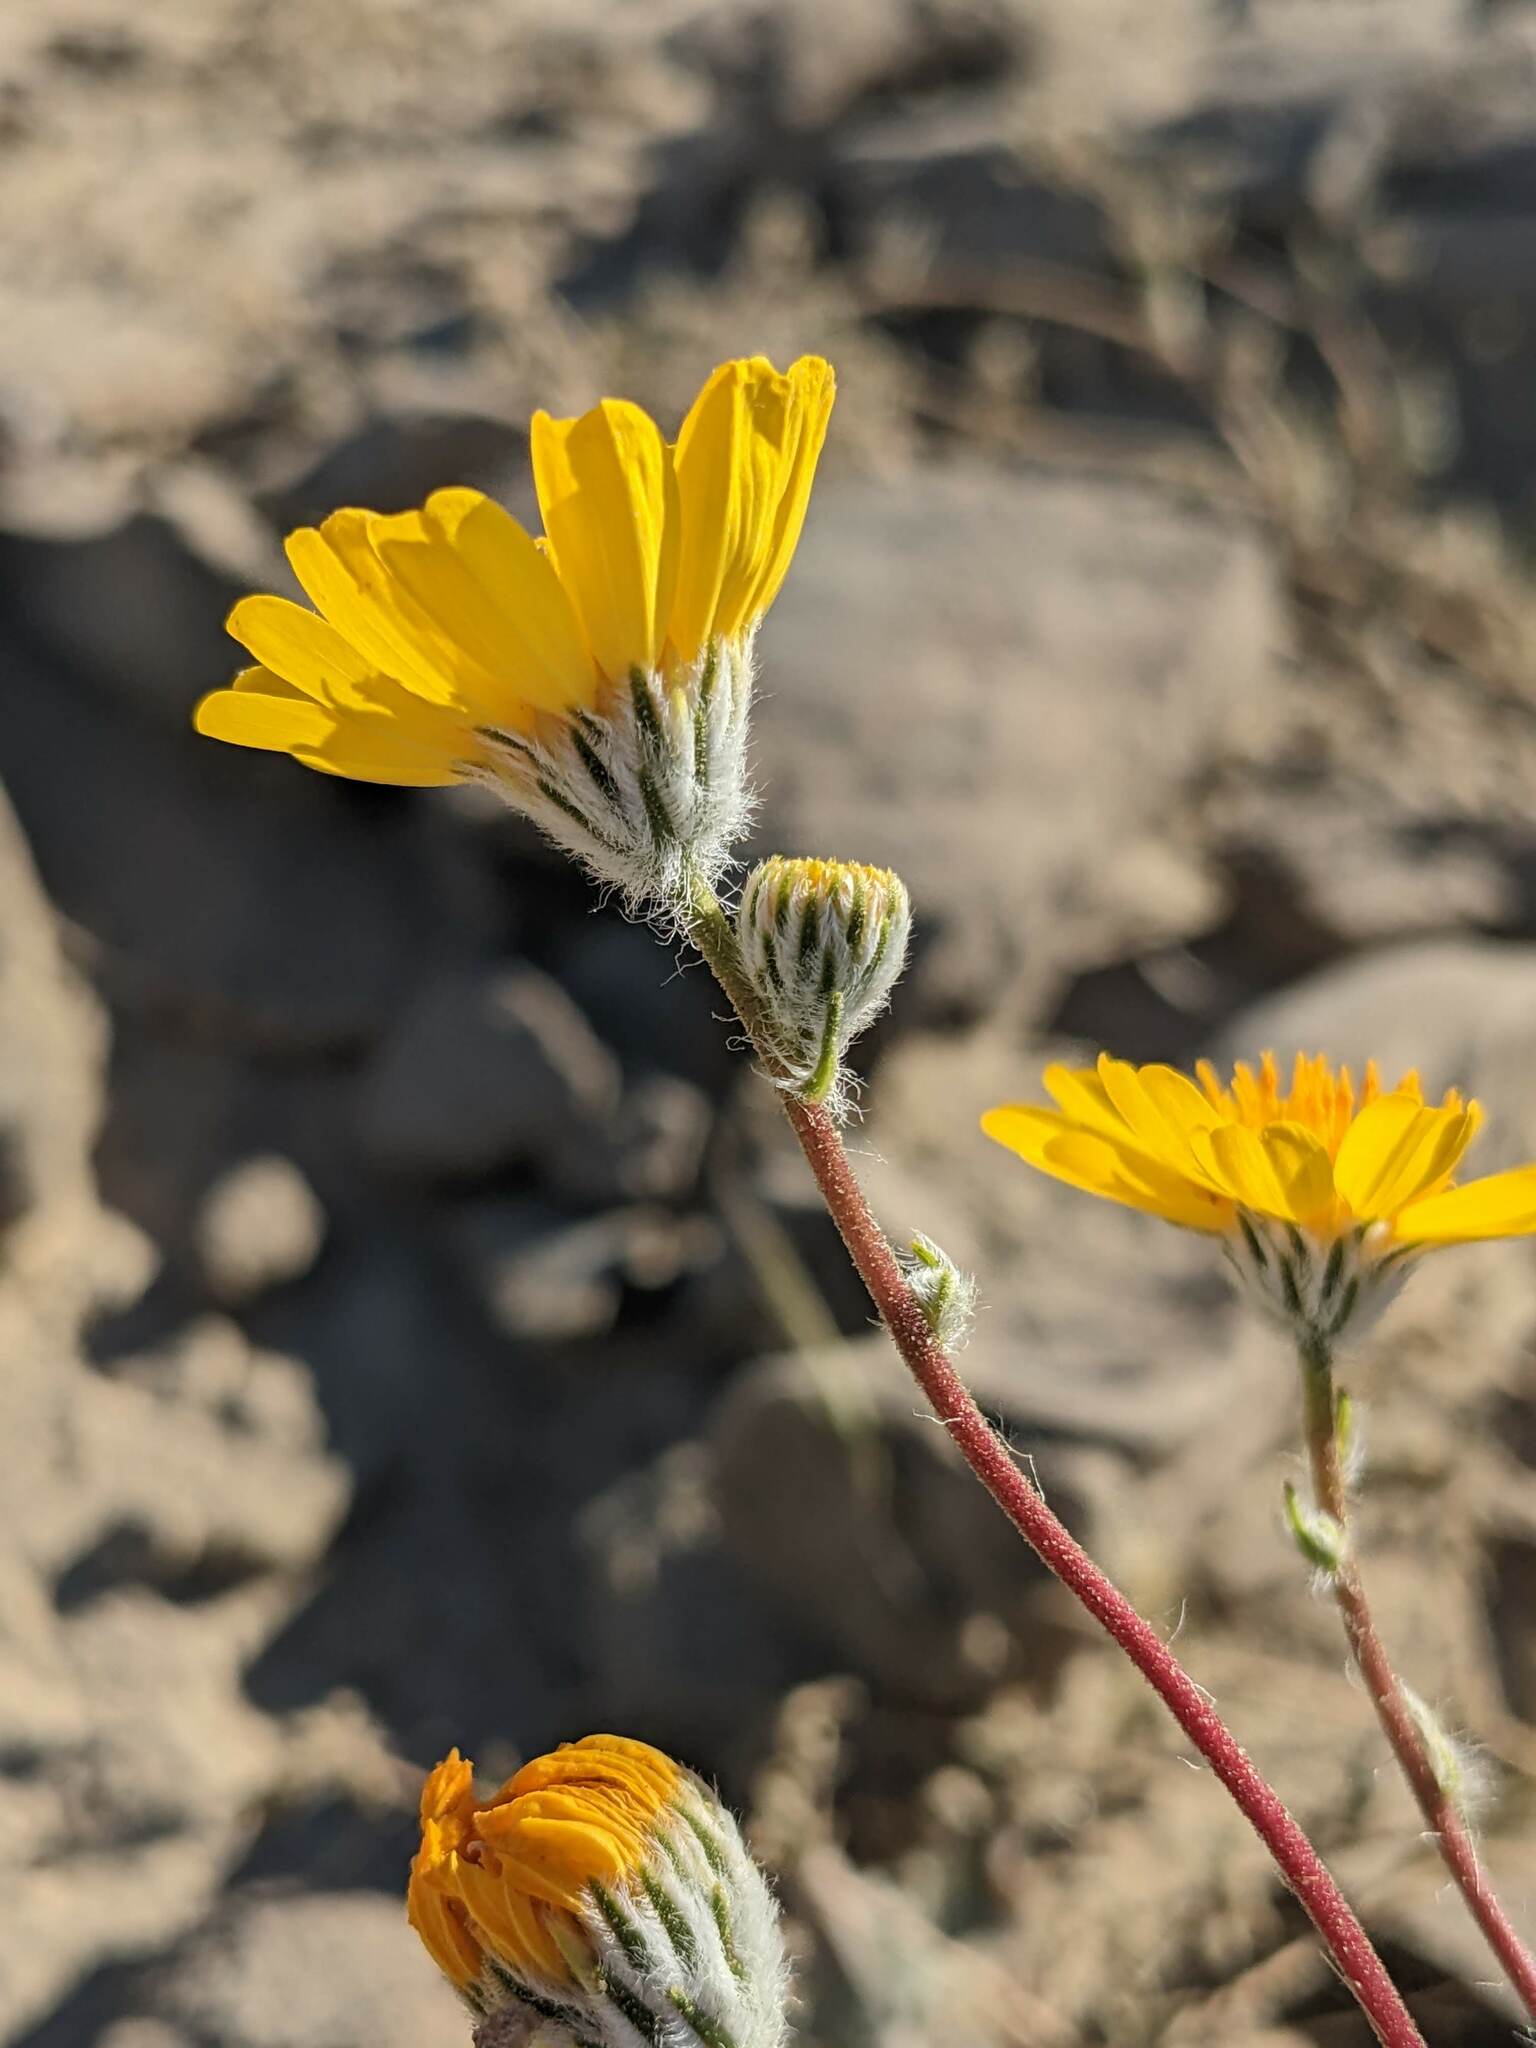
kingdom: Plantae
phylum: Tracheophyta
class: Magnoliopsida
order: Asterales
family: Asteraceae
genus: Geraea
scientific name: Geraea canescens
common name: Desert-gold
